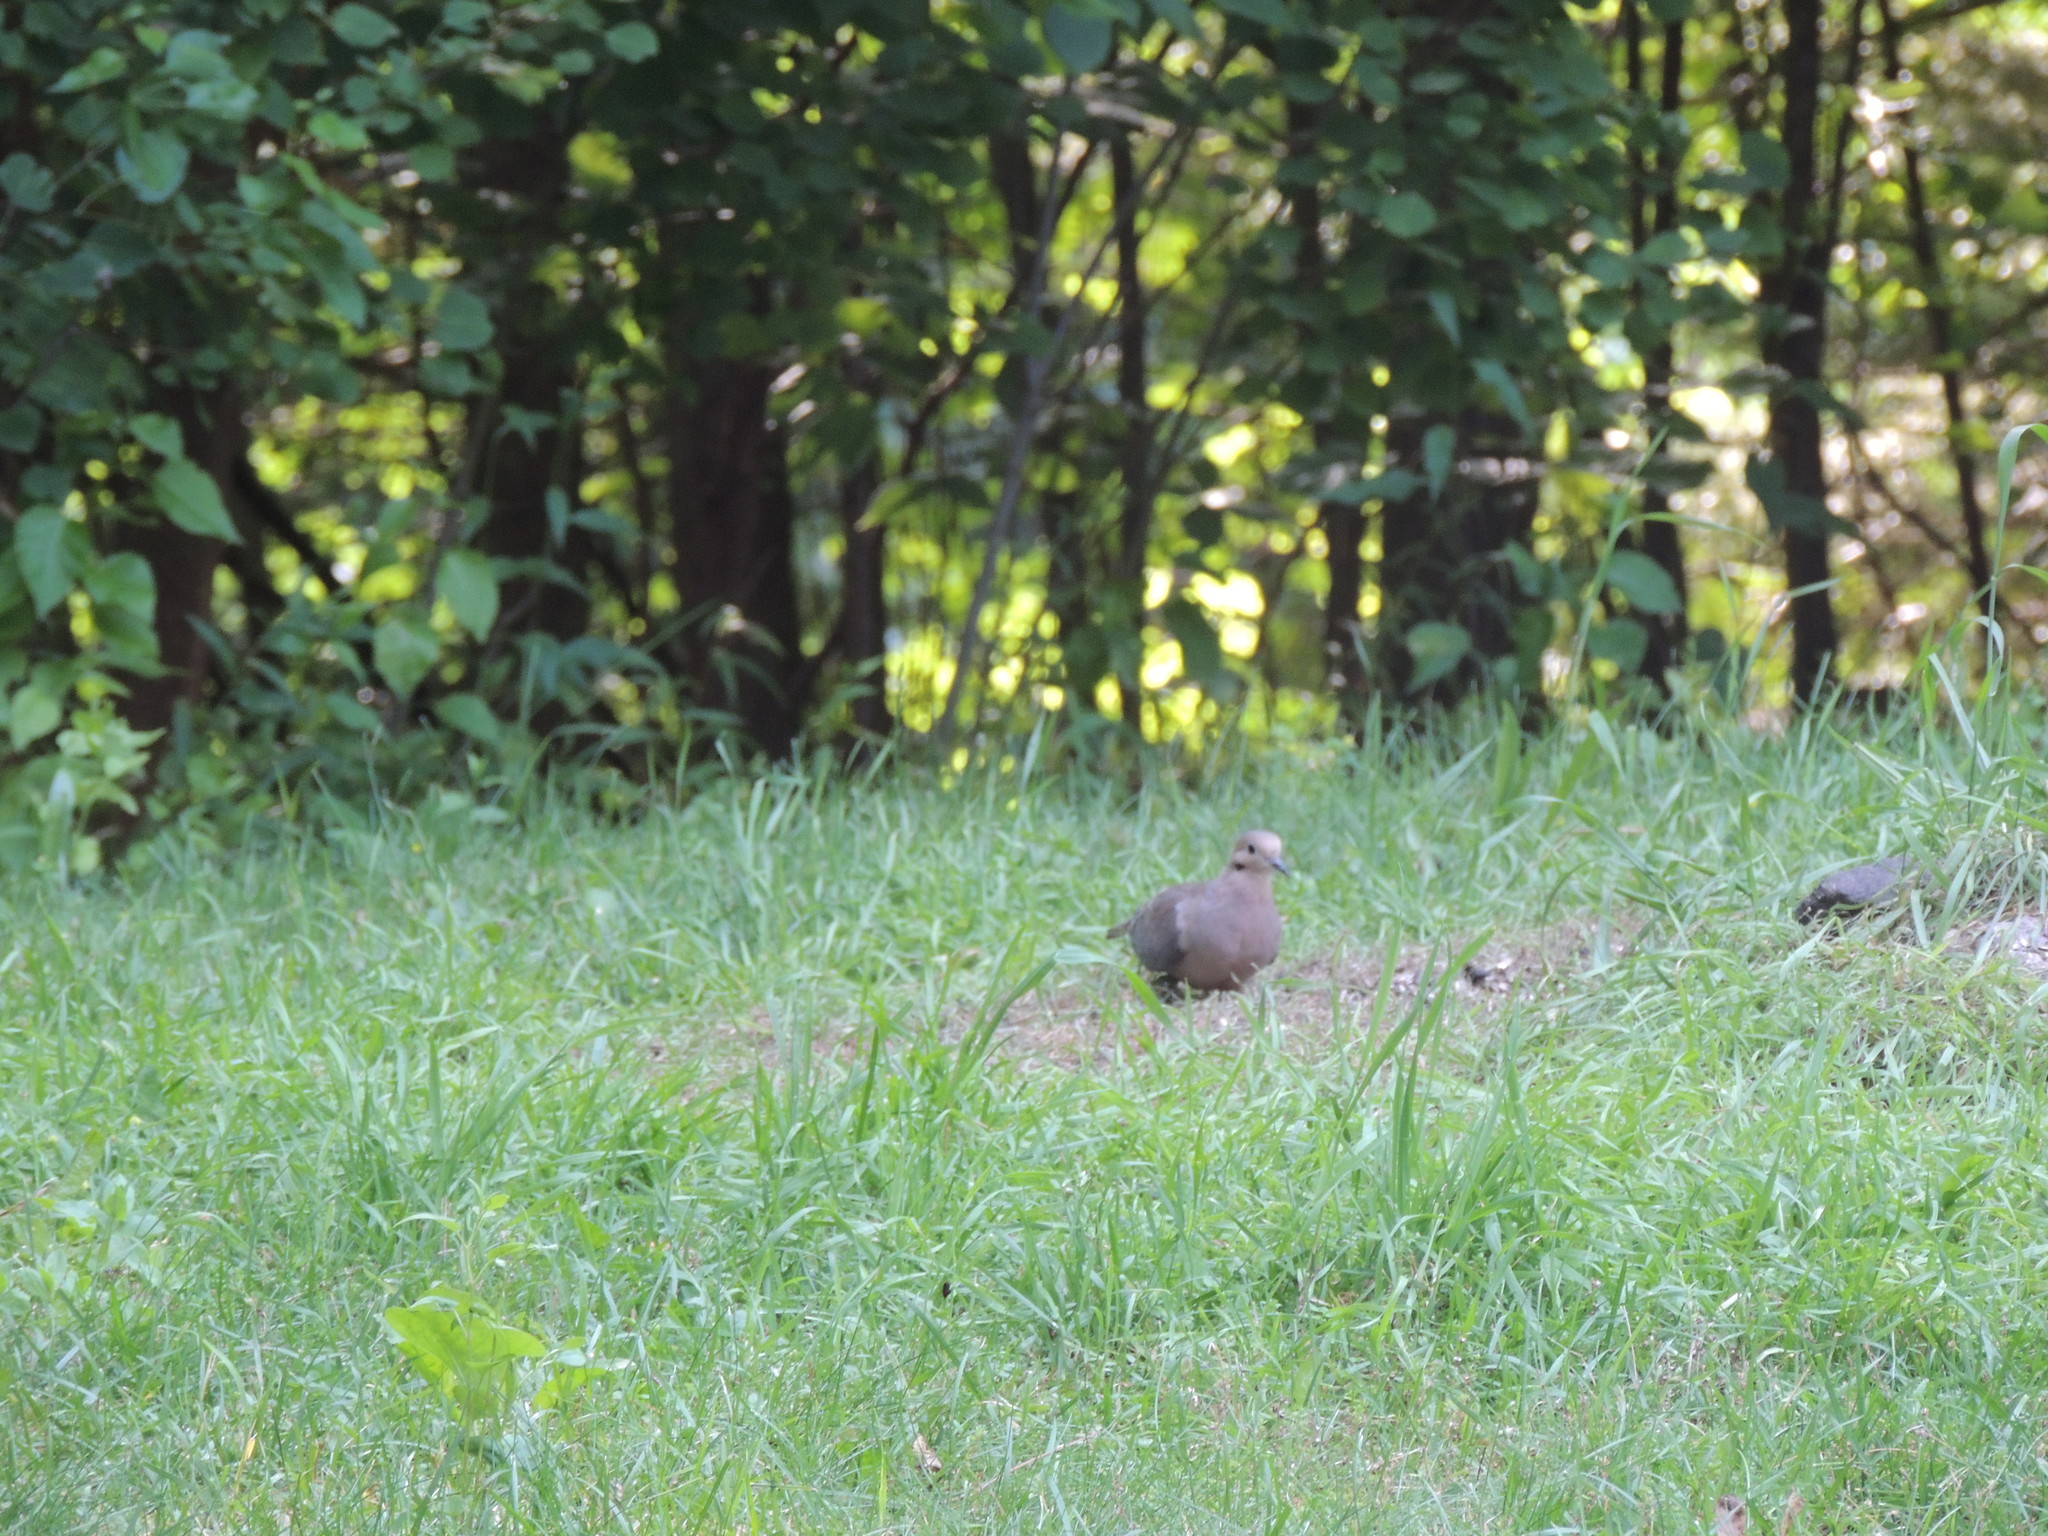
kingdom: Animalia
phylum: Chordata
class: Aves
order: Columbiformes
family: Columbidae
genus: Zenaida
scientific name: Zenaida macroura
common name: Mourning dove
